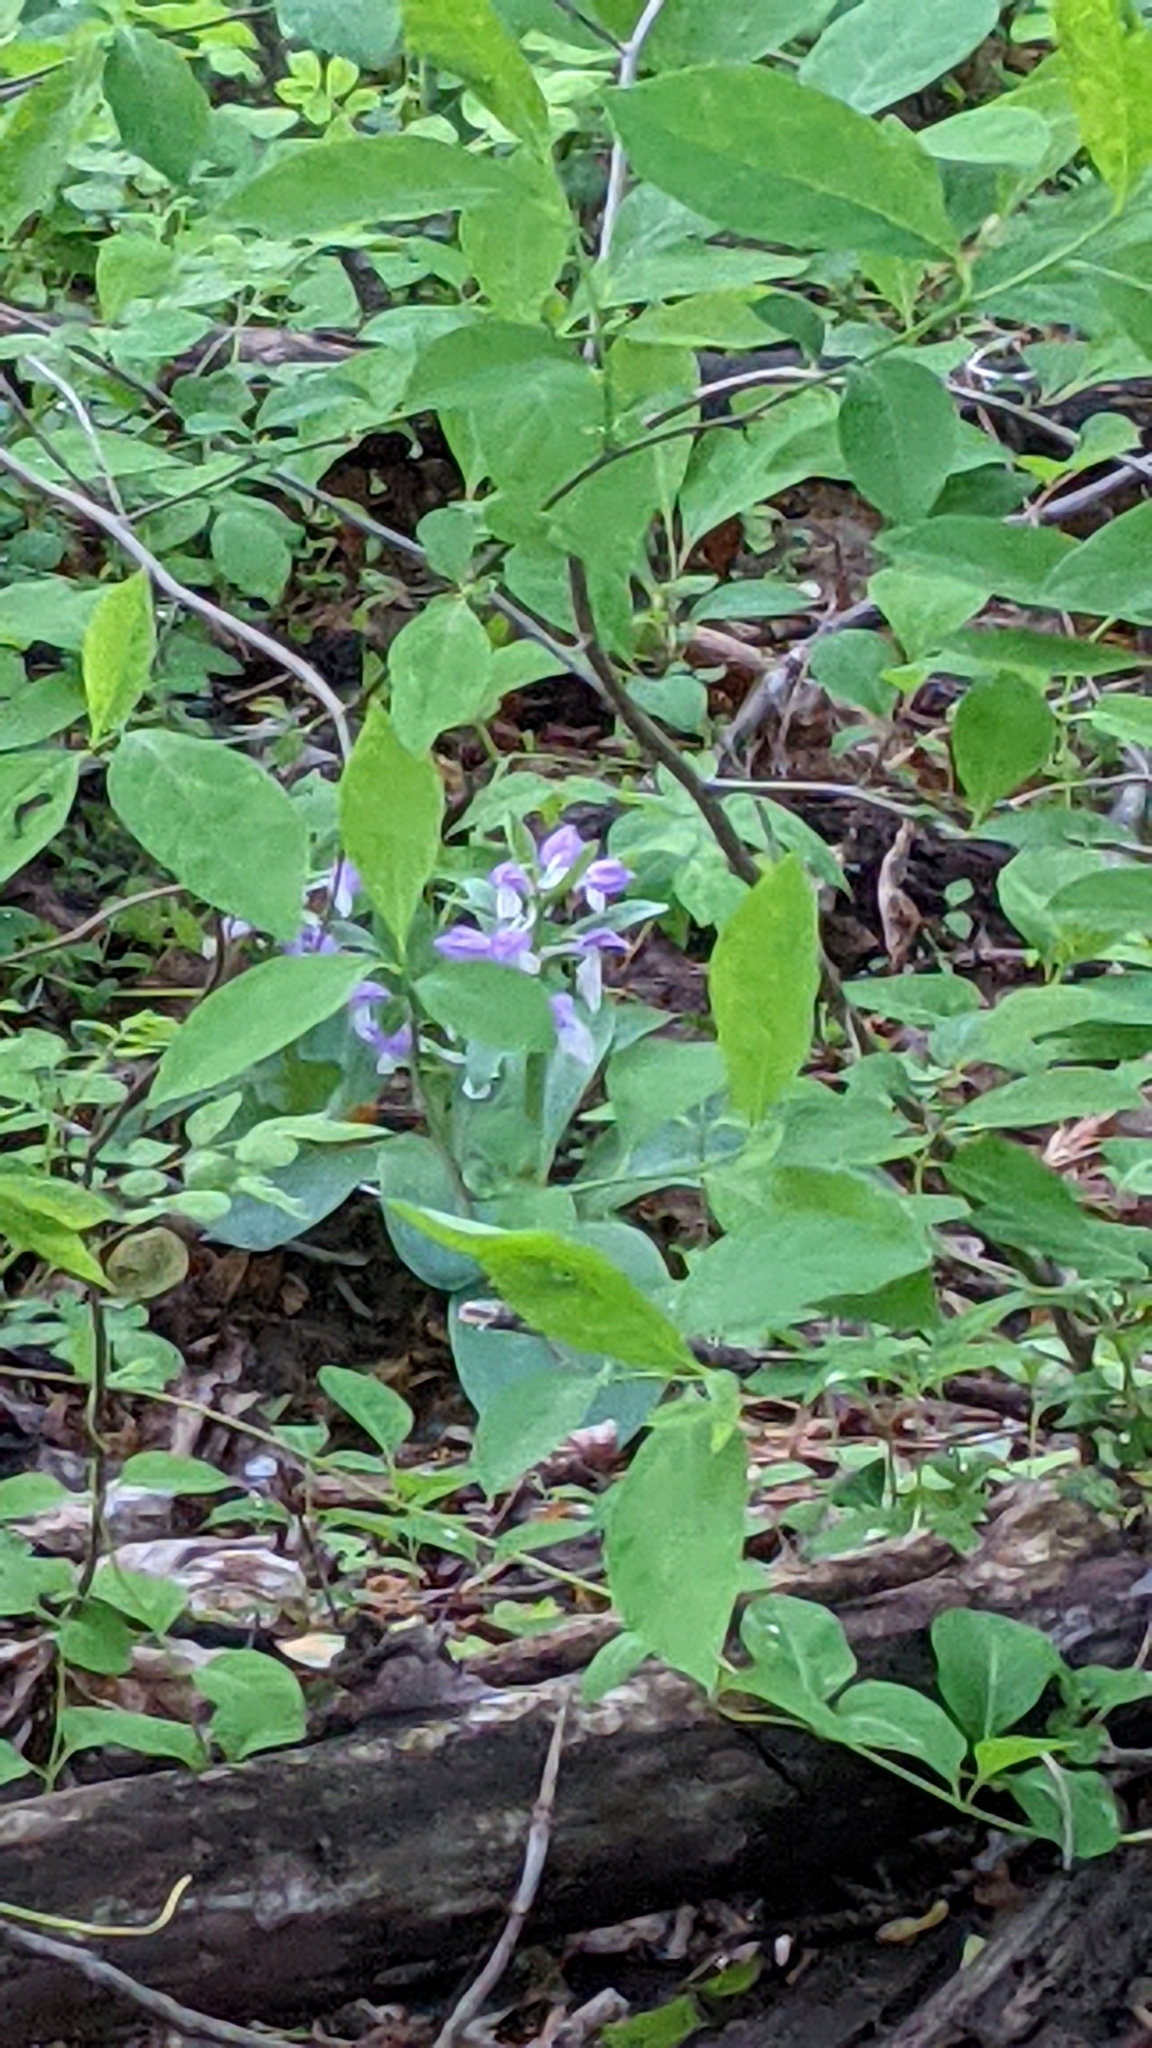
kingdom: Plantae
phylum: Tracheophyta
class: Liliopsida
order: Asparagales
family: Orchidaceae
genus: Galearis
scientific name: Galearis spectabilis
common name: Purple-hooded orchis
